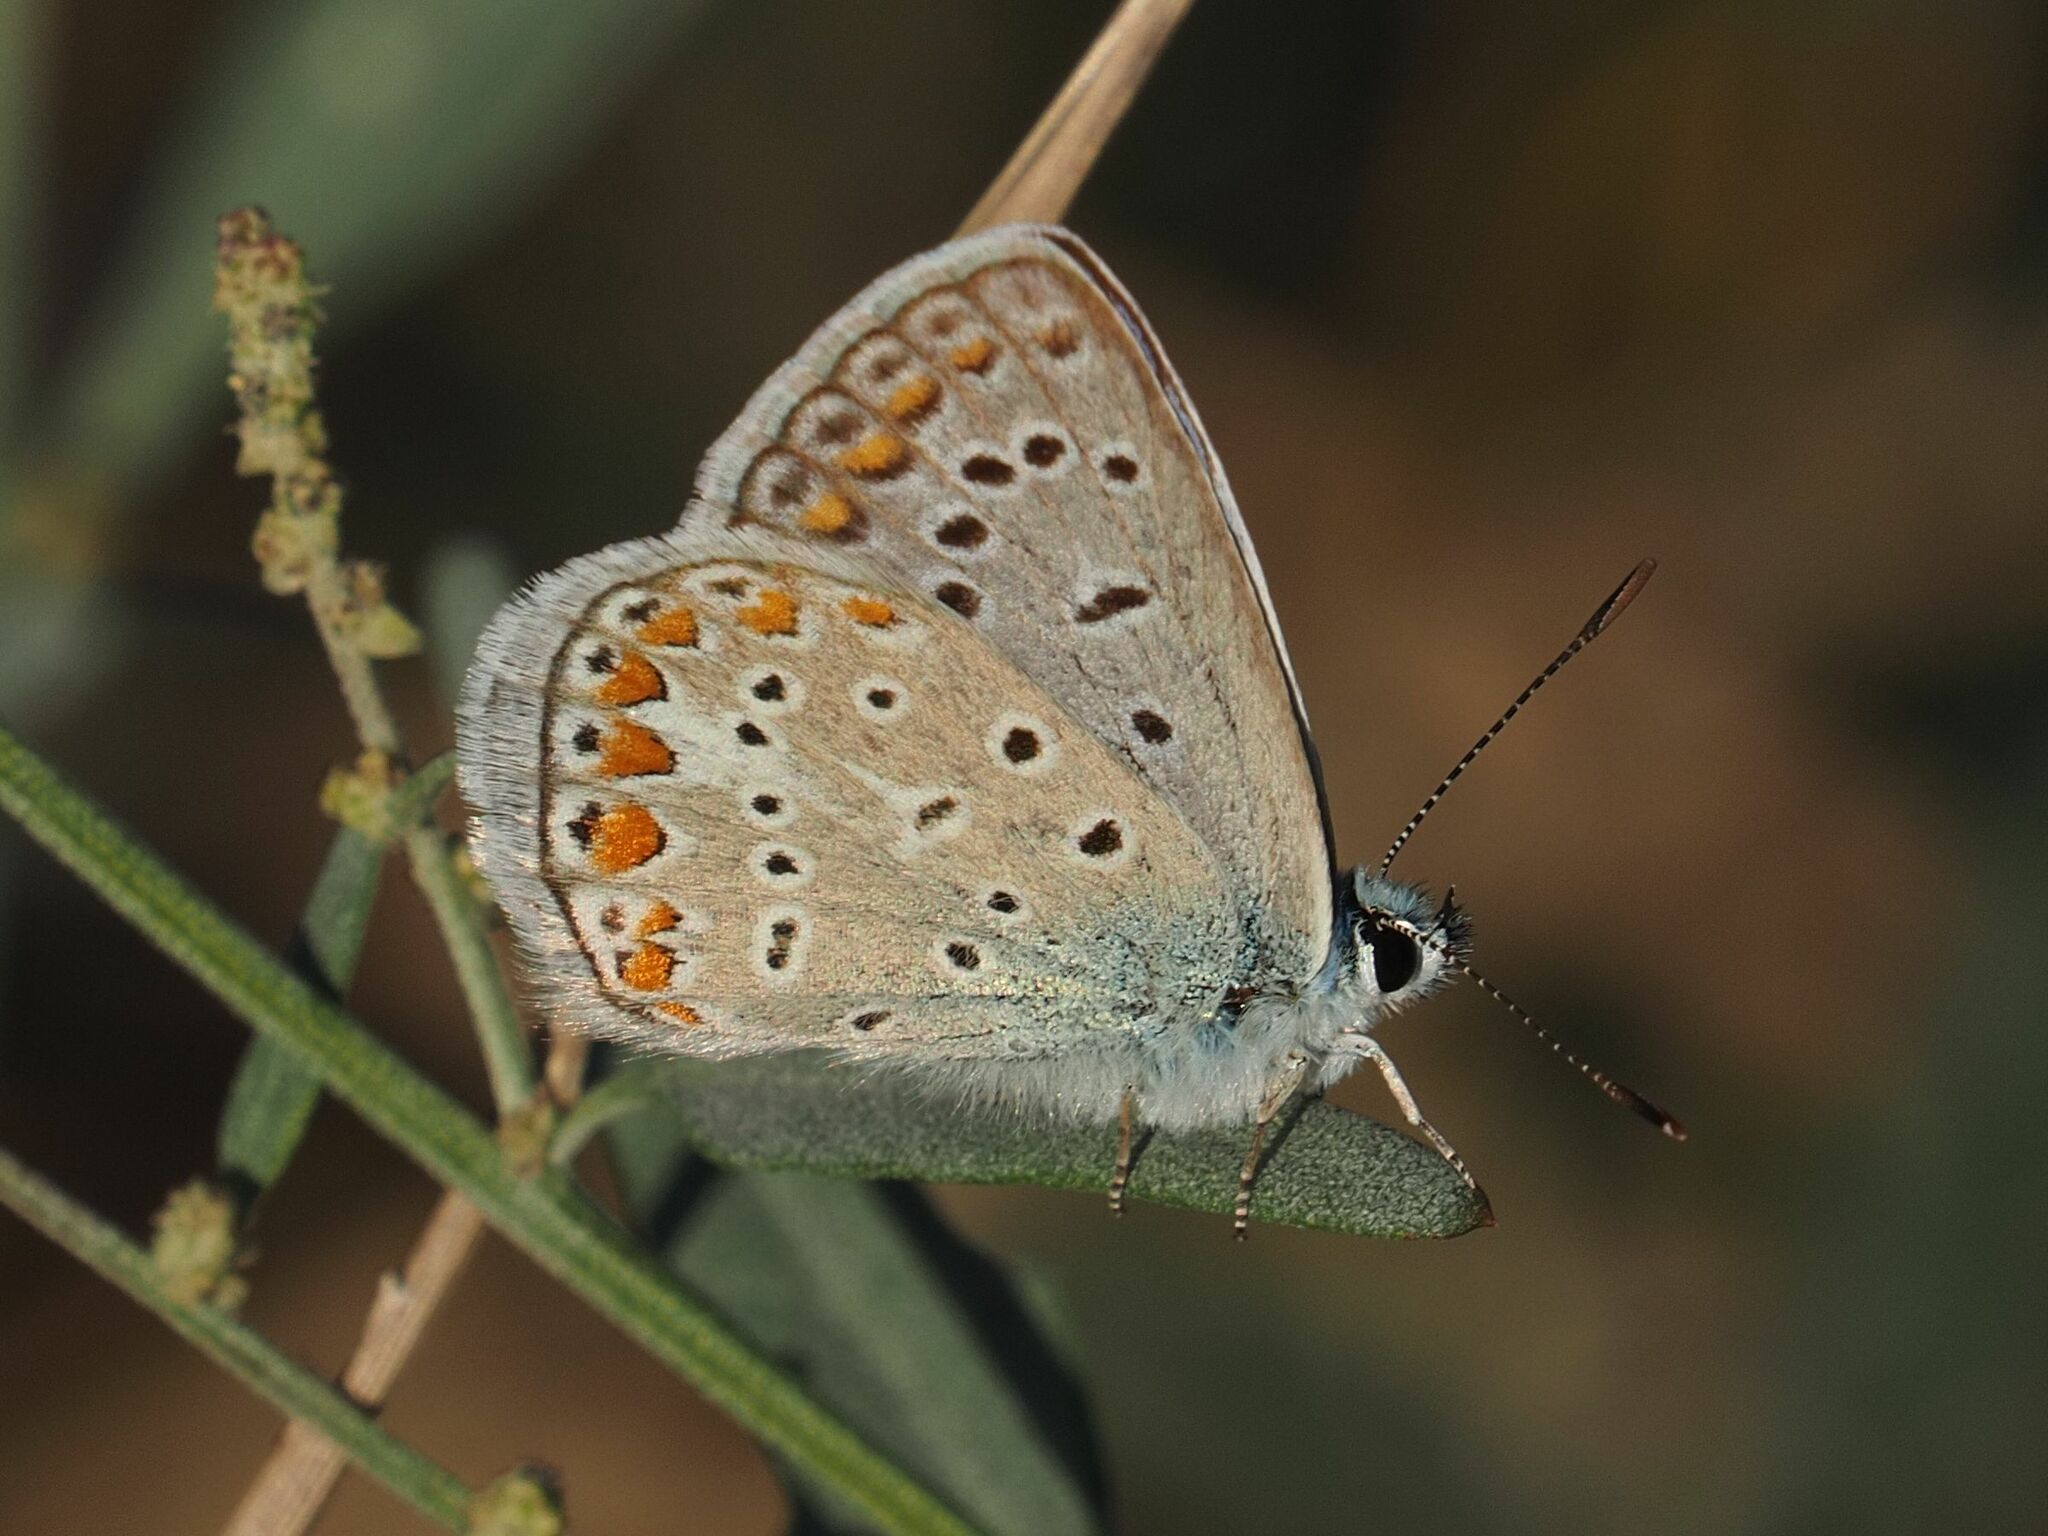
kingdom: Animalia
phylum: Arthropoda
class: Insecta
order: Lepidoptera
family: Lycaenidae
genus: Polyommatus
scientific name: Polyommatus icarus
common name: Common blue
